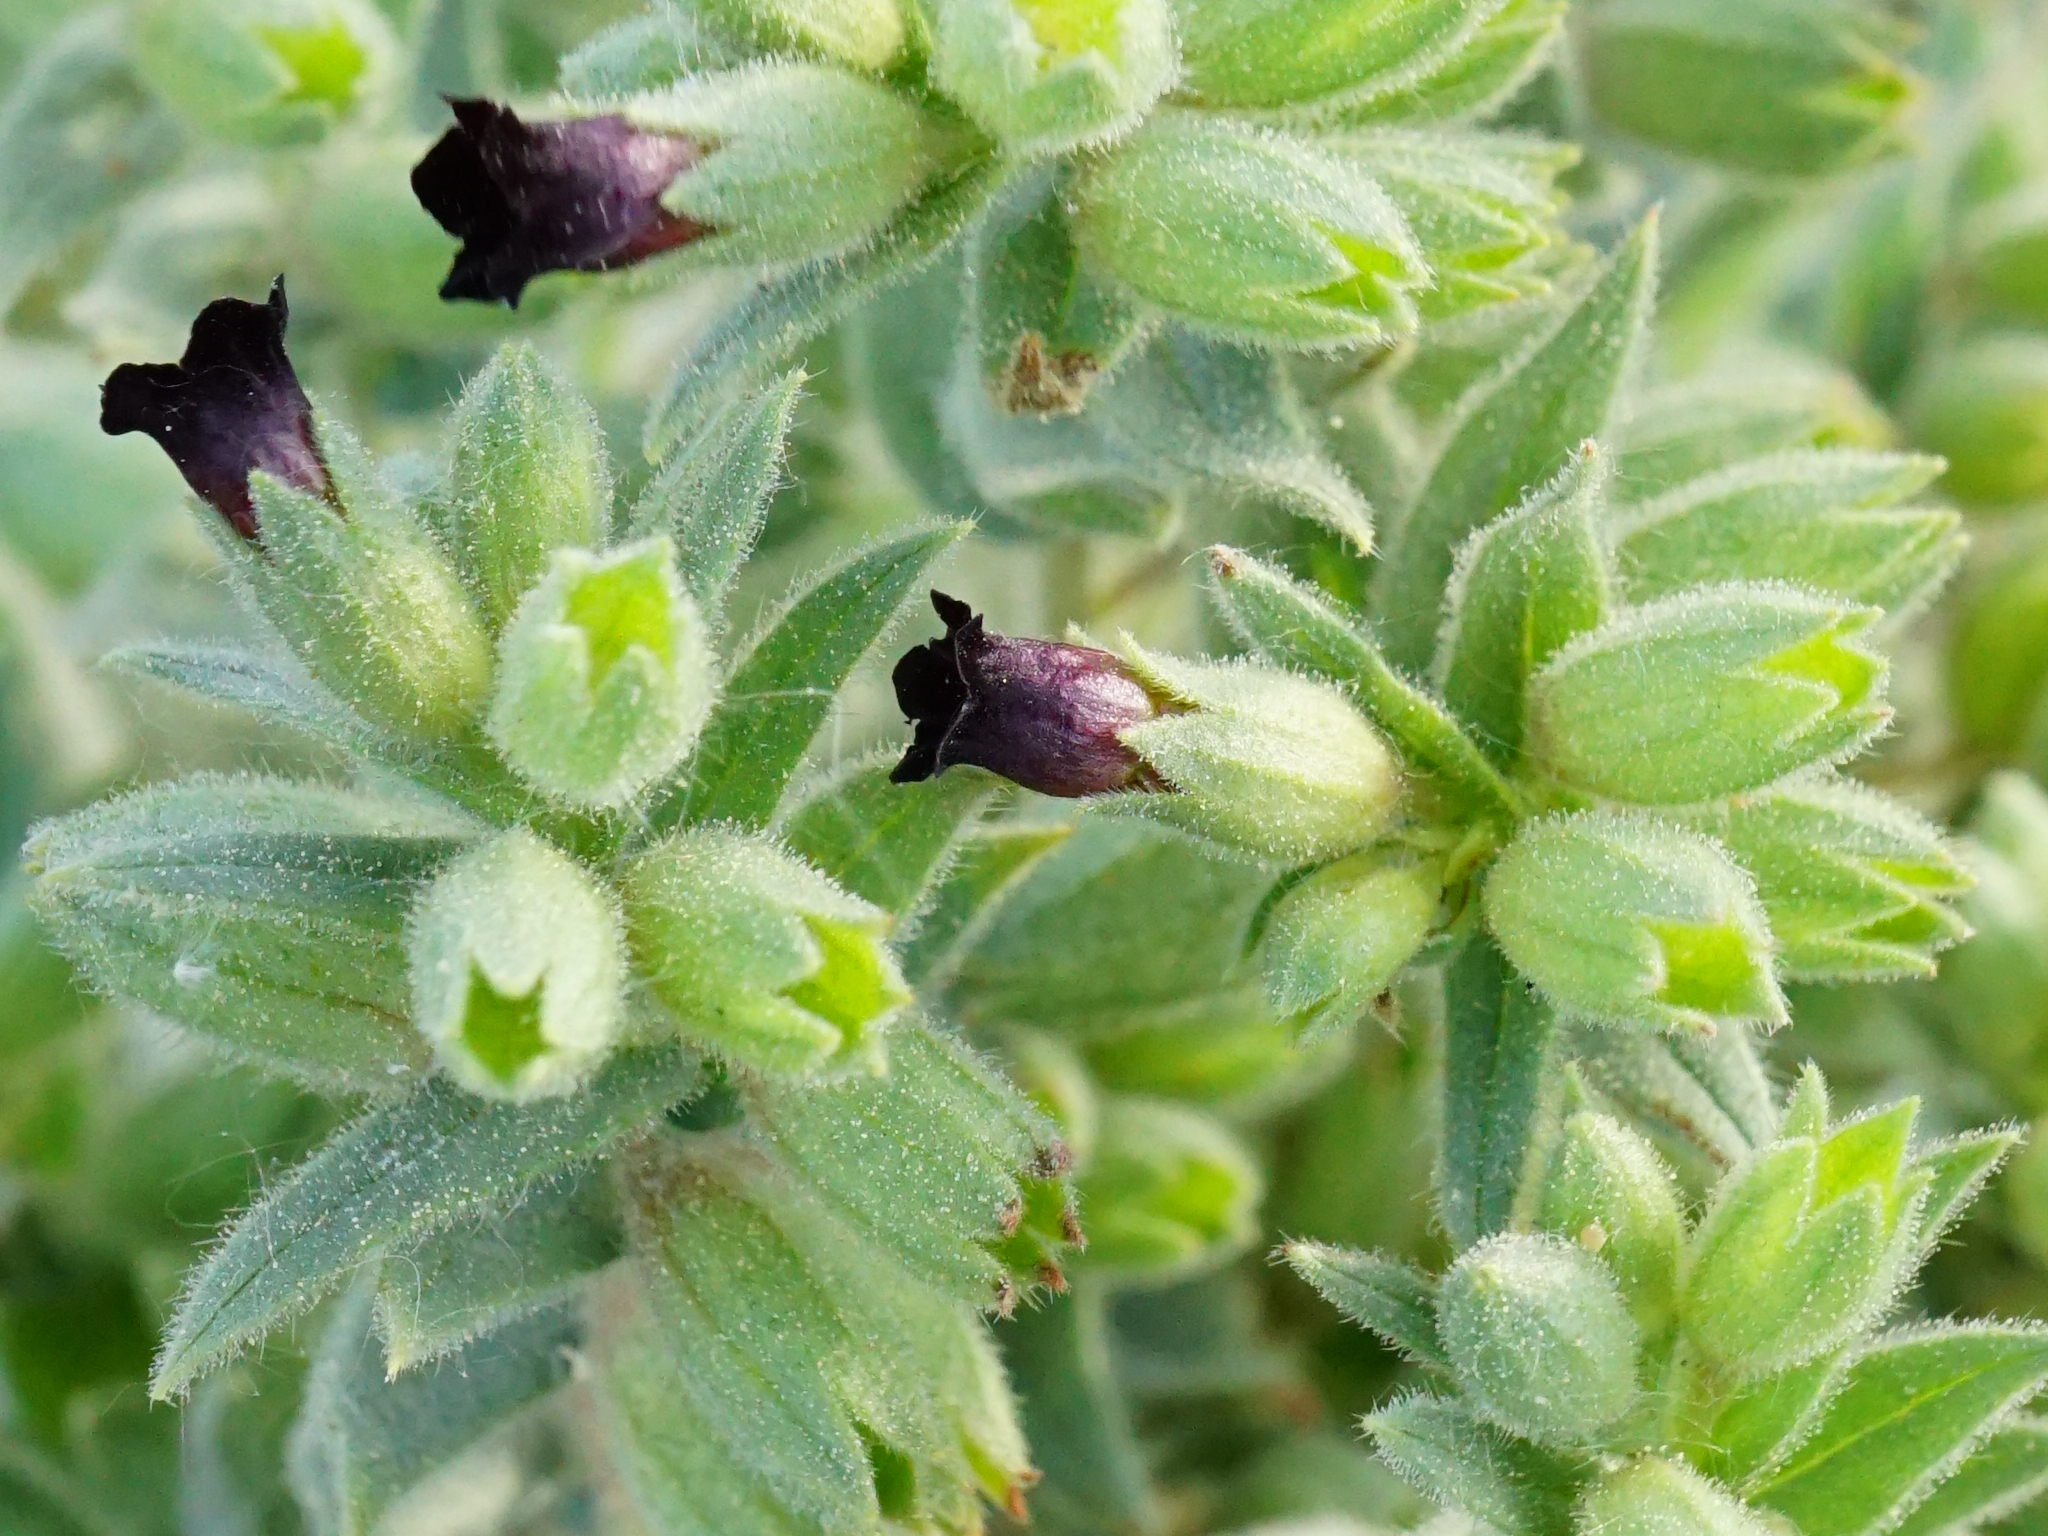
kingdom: Plantae
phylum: Tracheophyta
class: Magnoliopsida
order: Boraginales
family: Boraginaceae
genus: Nonea
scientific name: Nonea pulla
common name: Brown nonea
